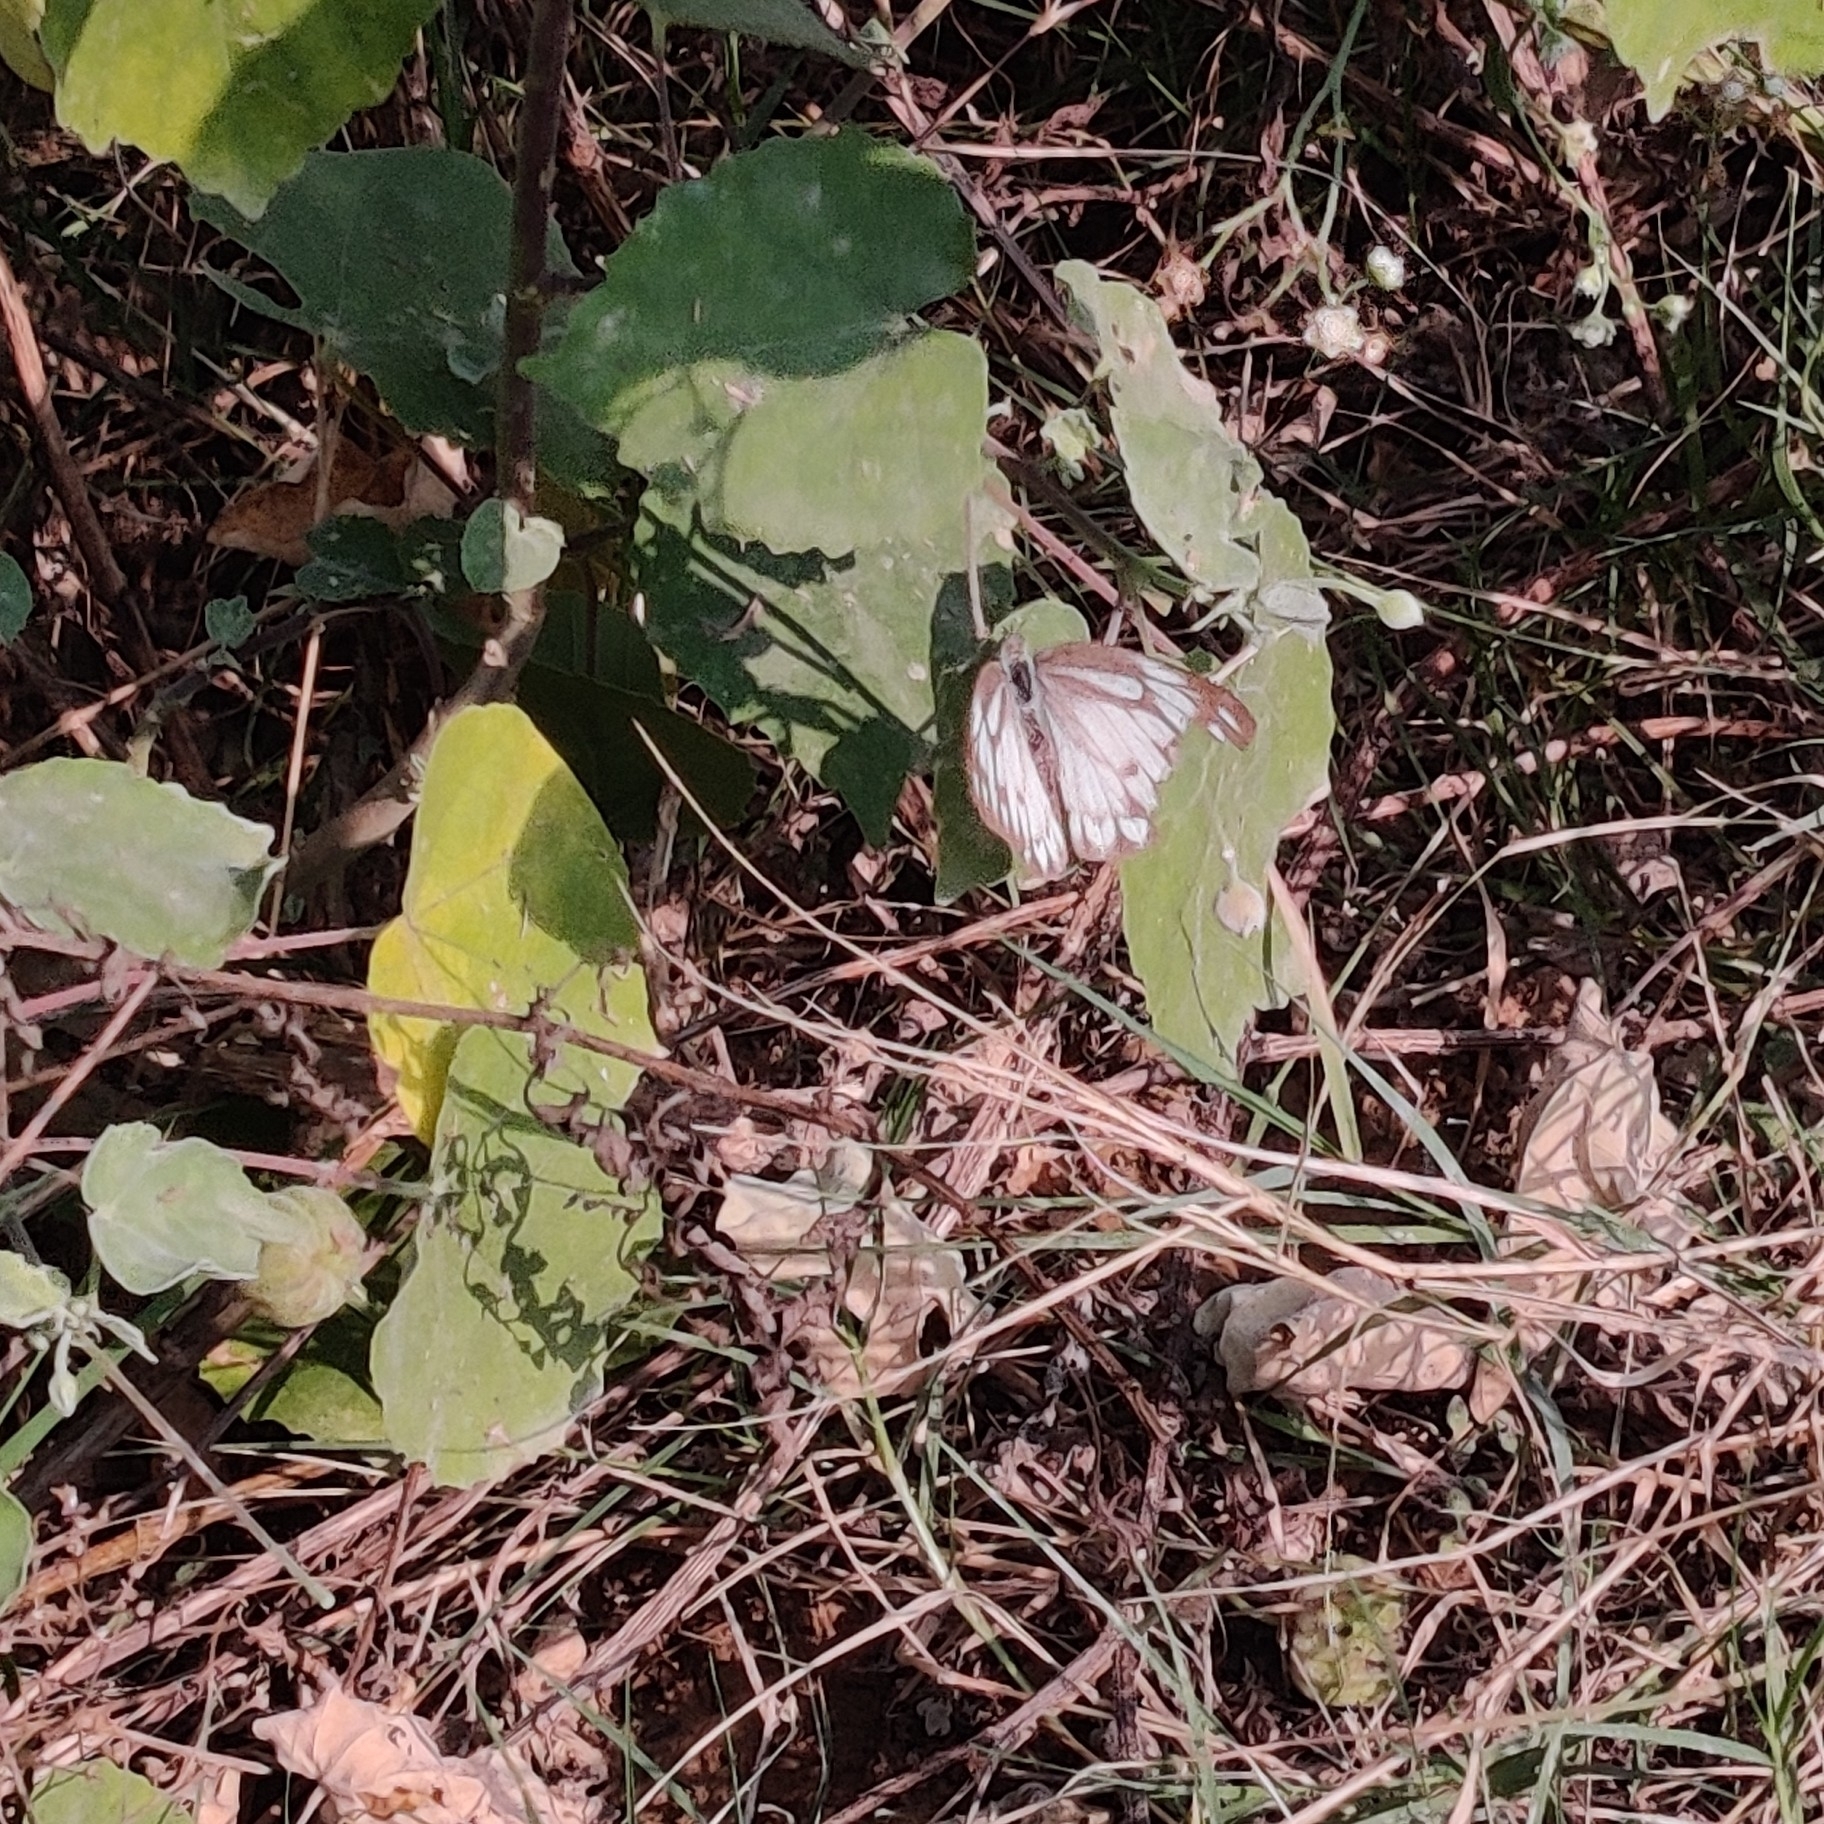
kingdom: Animalia
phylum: Arthropoda
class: Insecta
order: Lepidoptera
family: Pieridae
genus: Cepora
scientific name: Cepora nerissa
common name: Common gull
